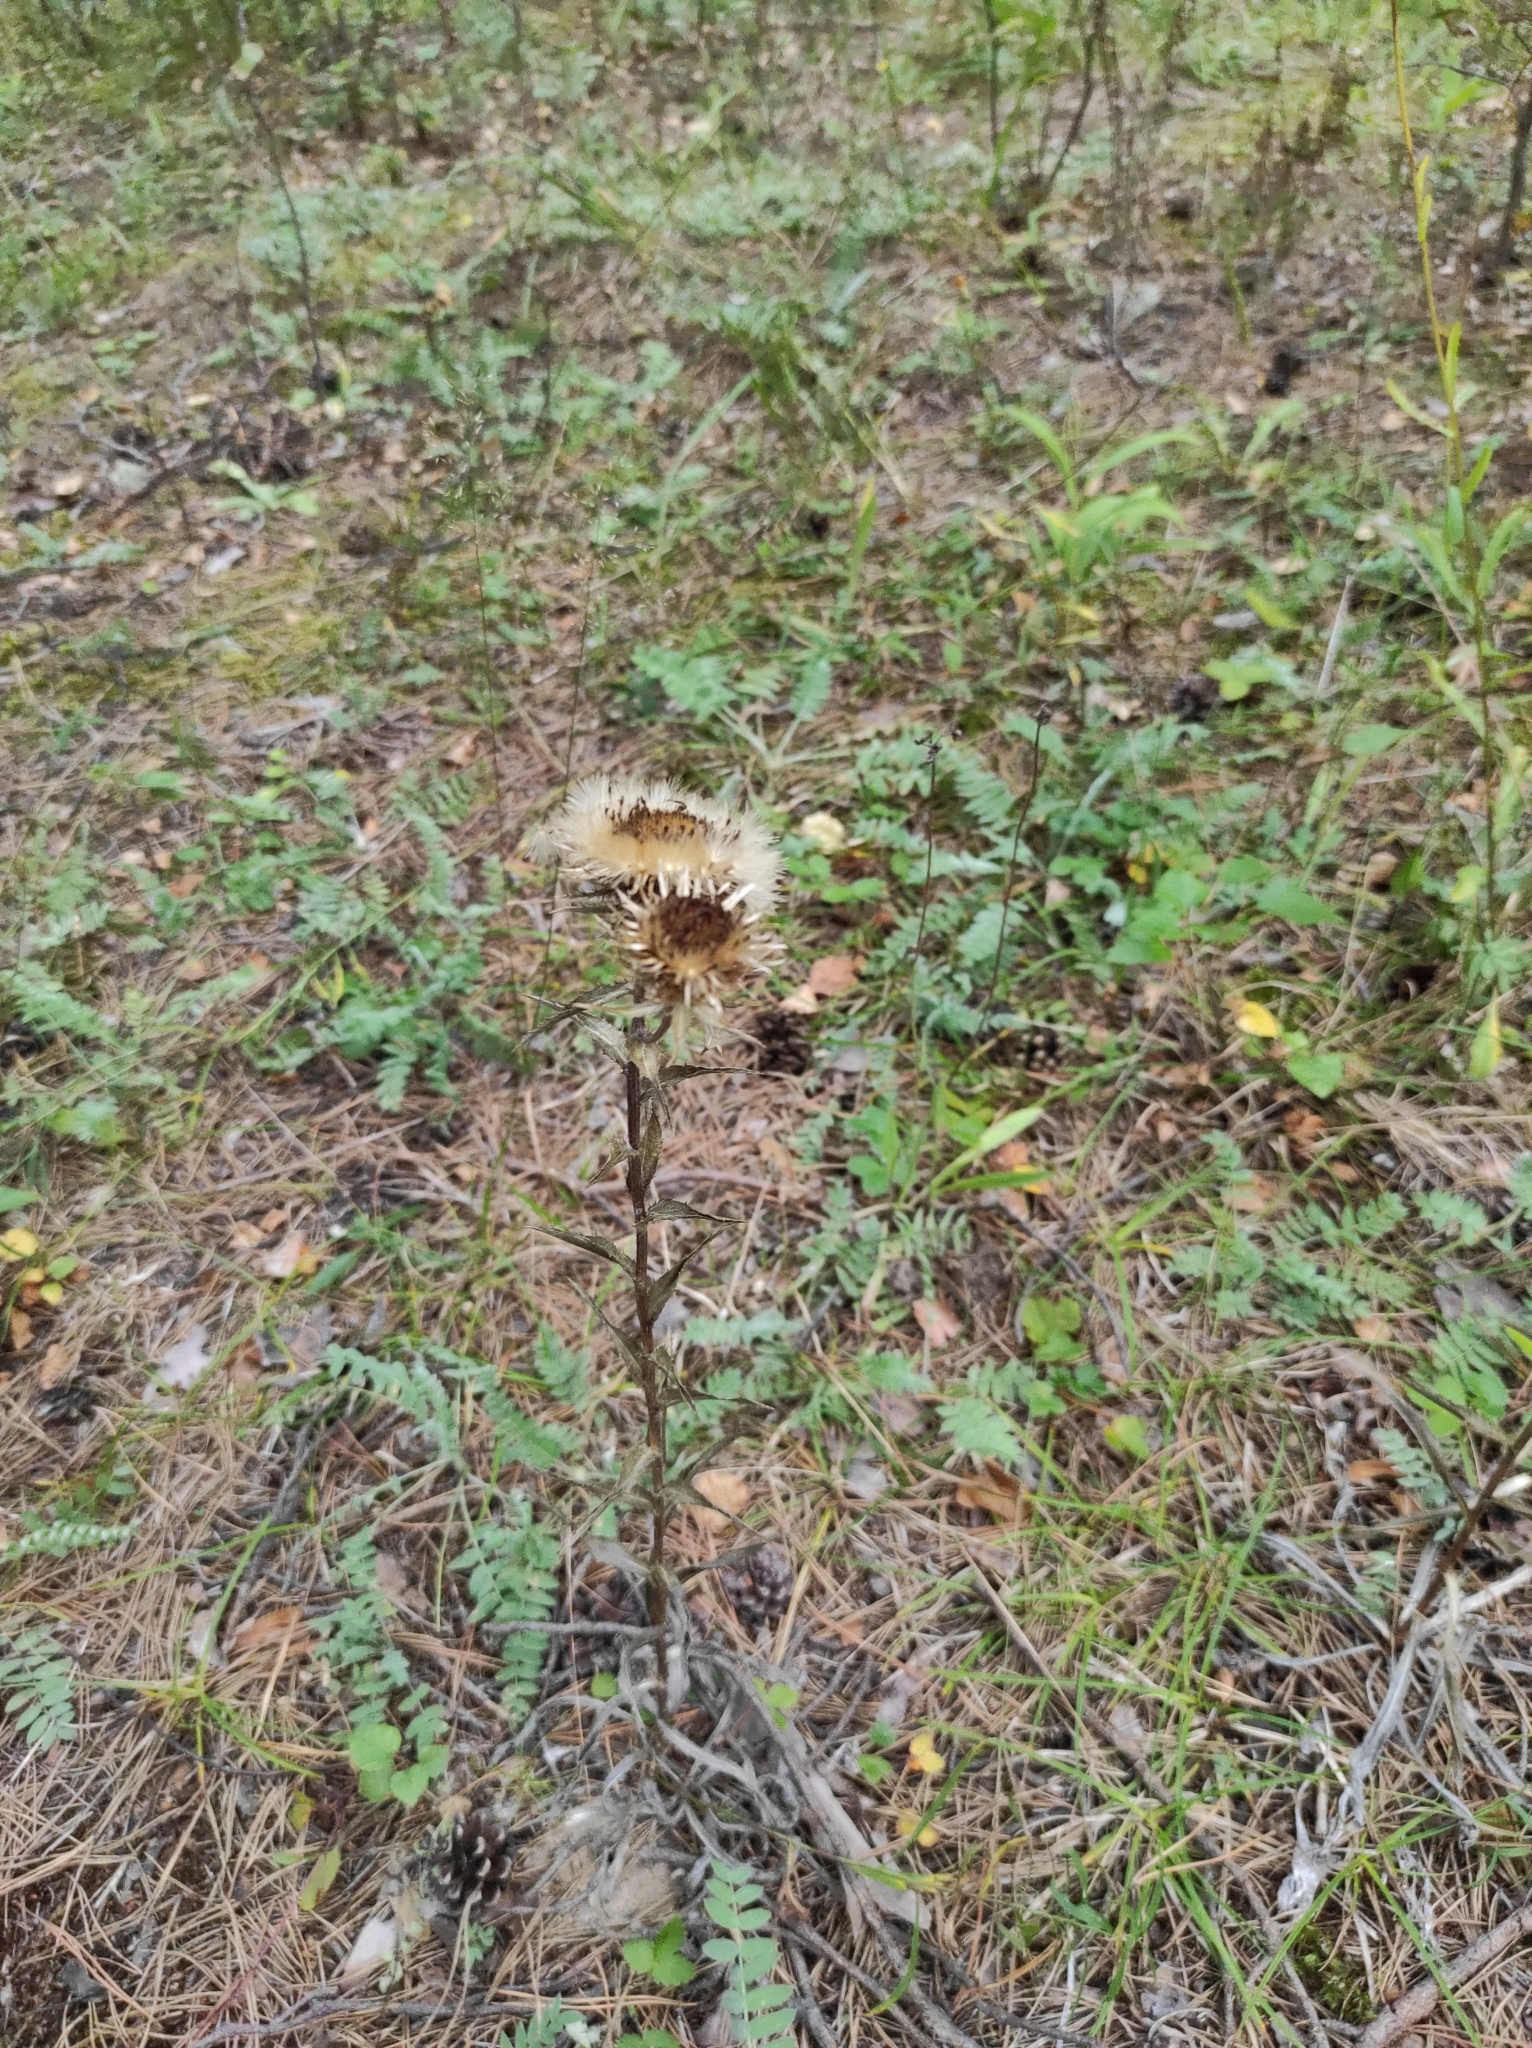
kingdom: Plantae
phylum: Tracheophyta
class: Magnoliopsida
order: Asterales
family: Asteraceae
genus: Carlina
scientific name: Carlina biebersteinii
